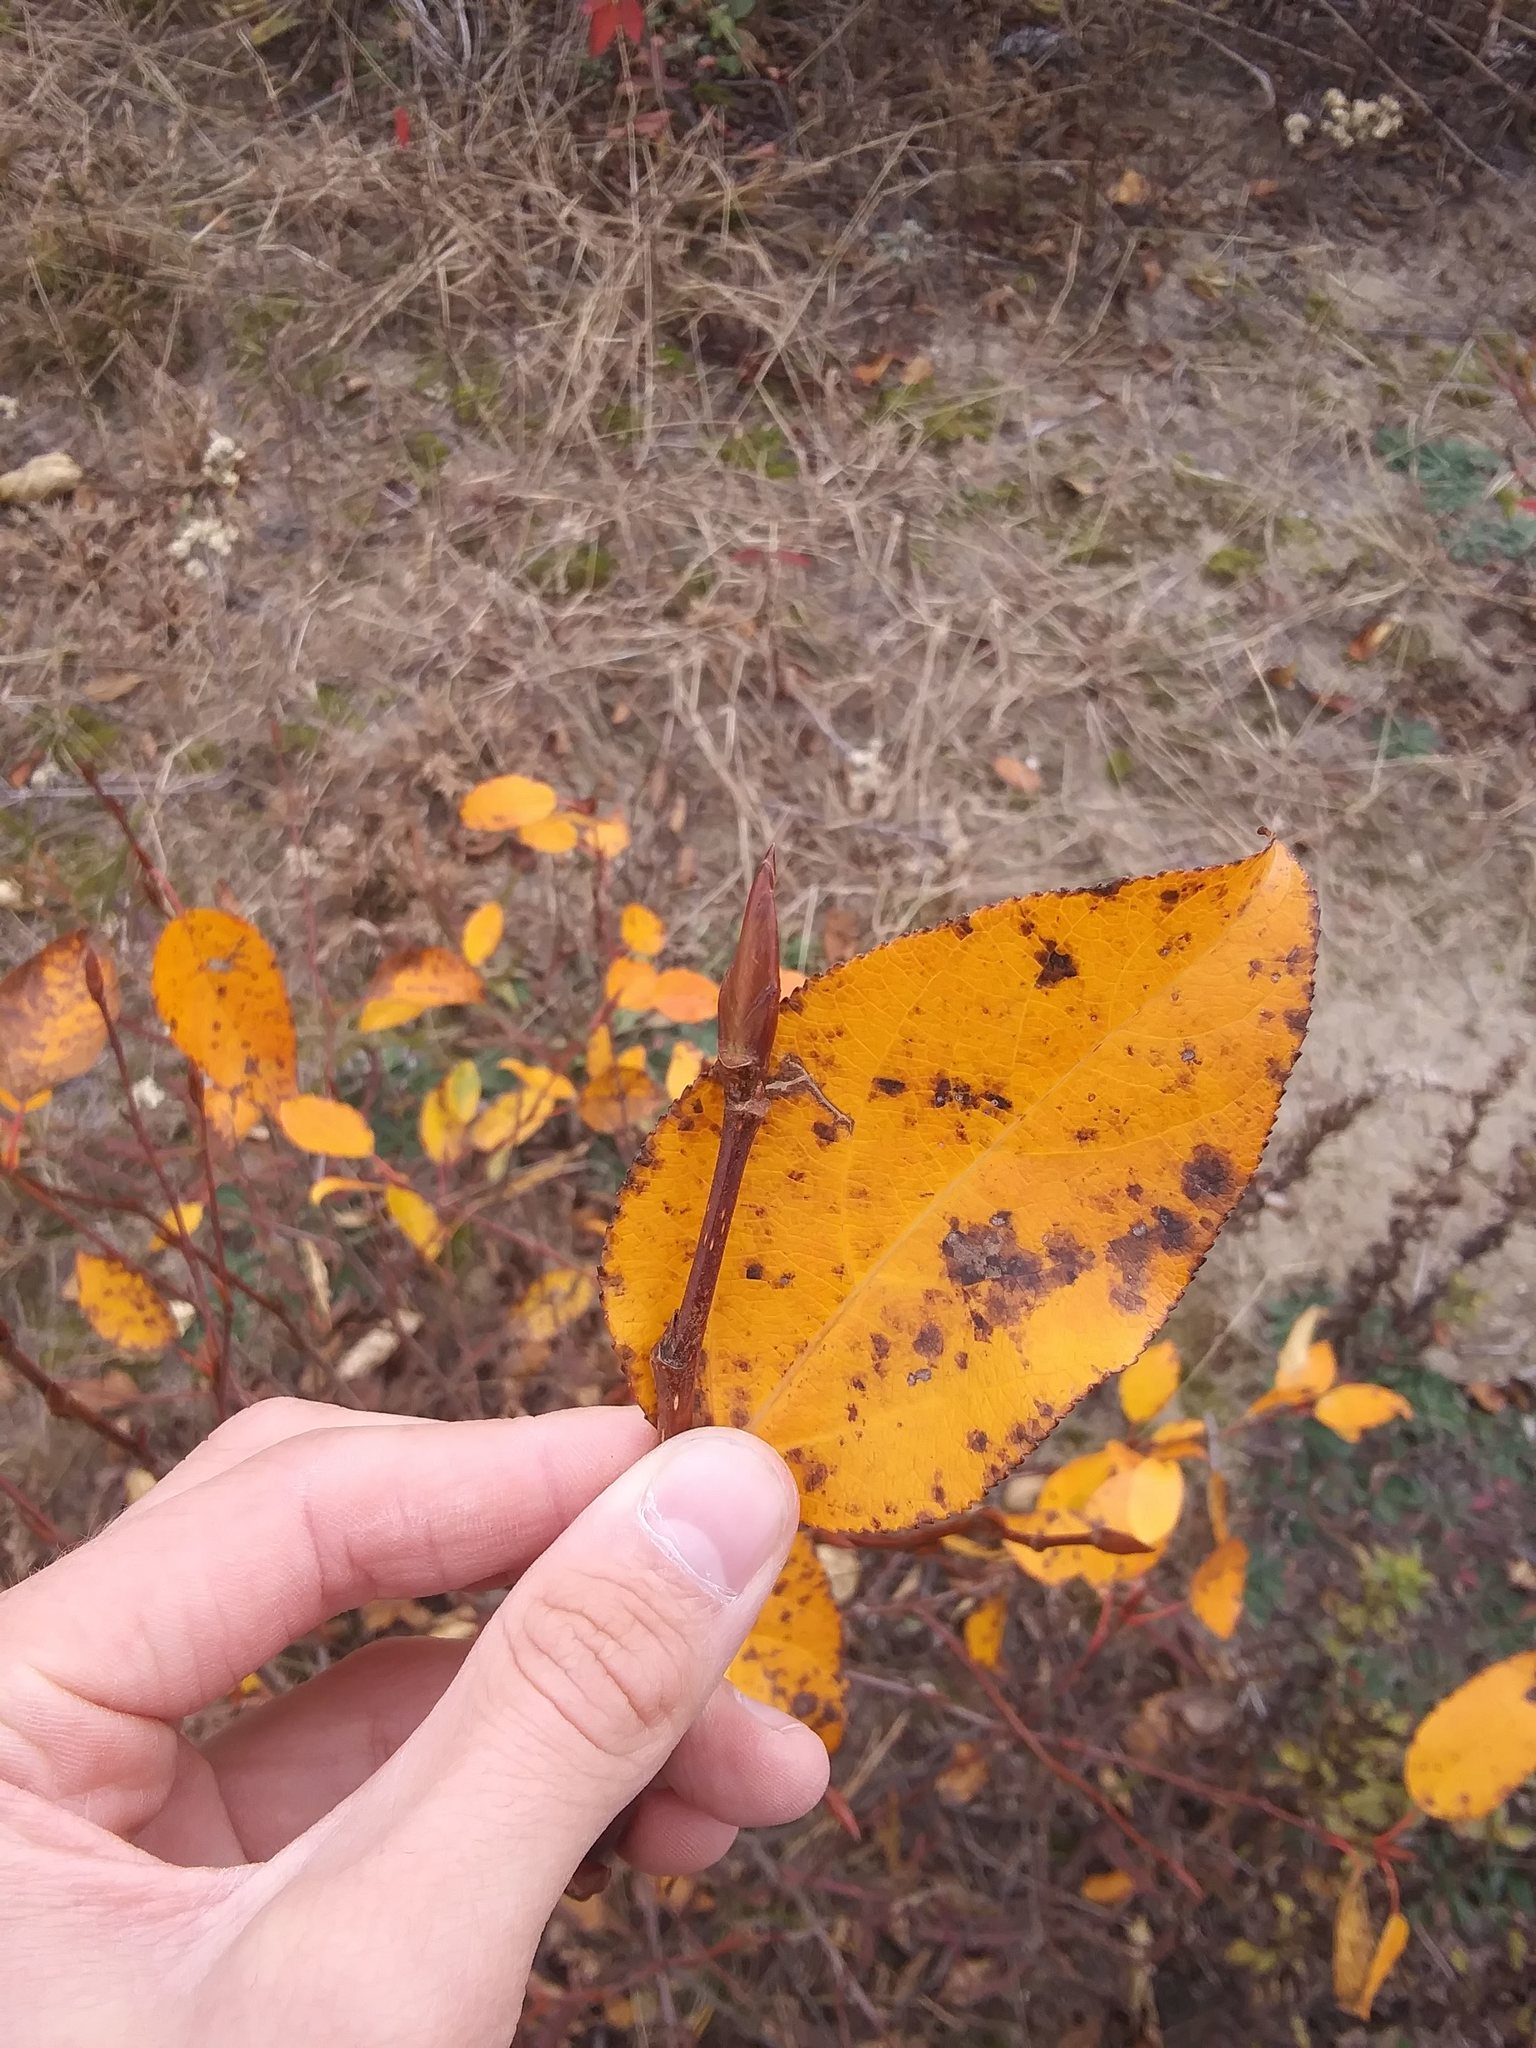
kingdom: Plantae
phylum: Tracheophyta
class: Magnoliopsida
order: Malpighiales
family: Salicaceae
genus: Populus
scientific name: Populus balsamifera
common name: Balsam poplar
